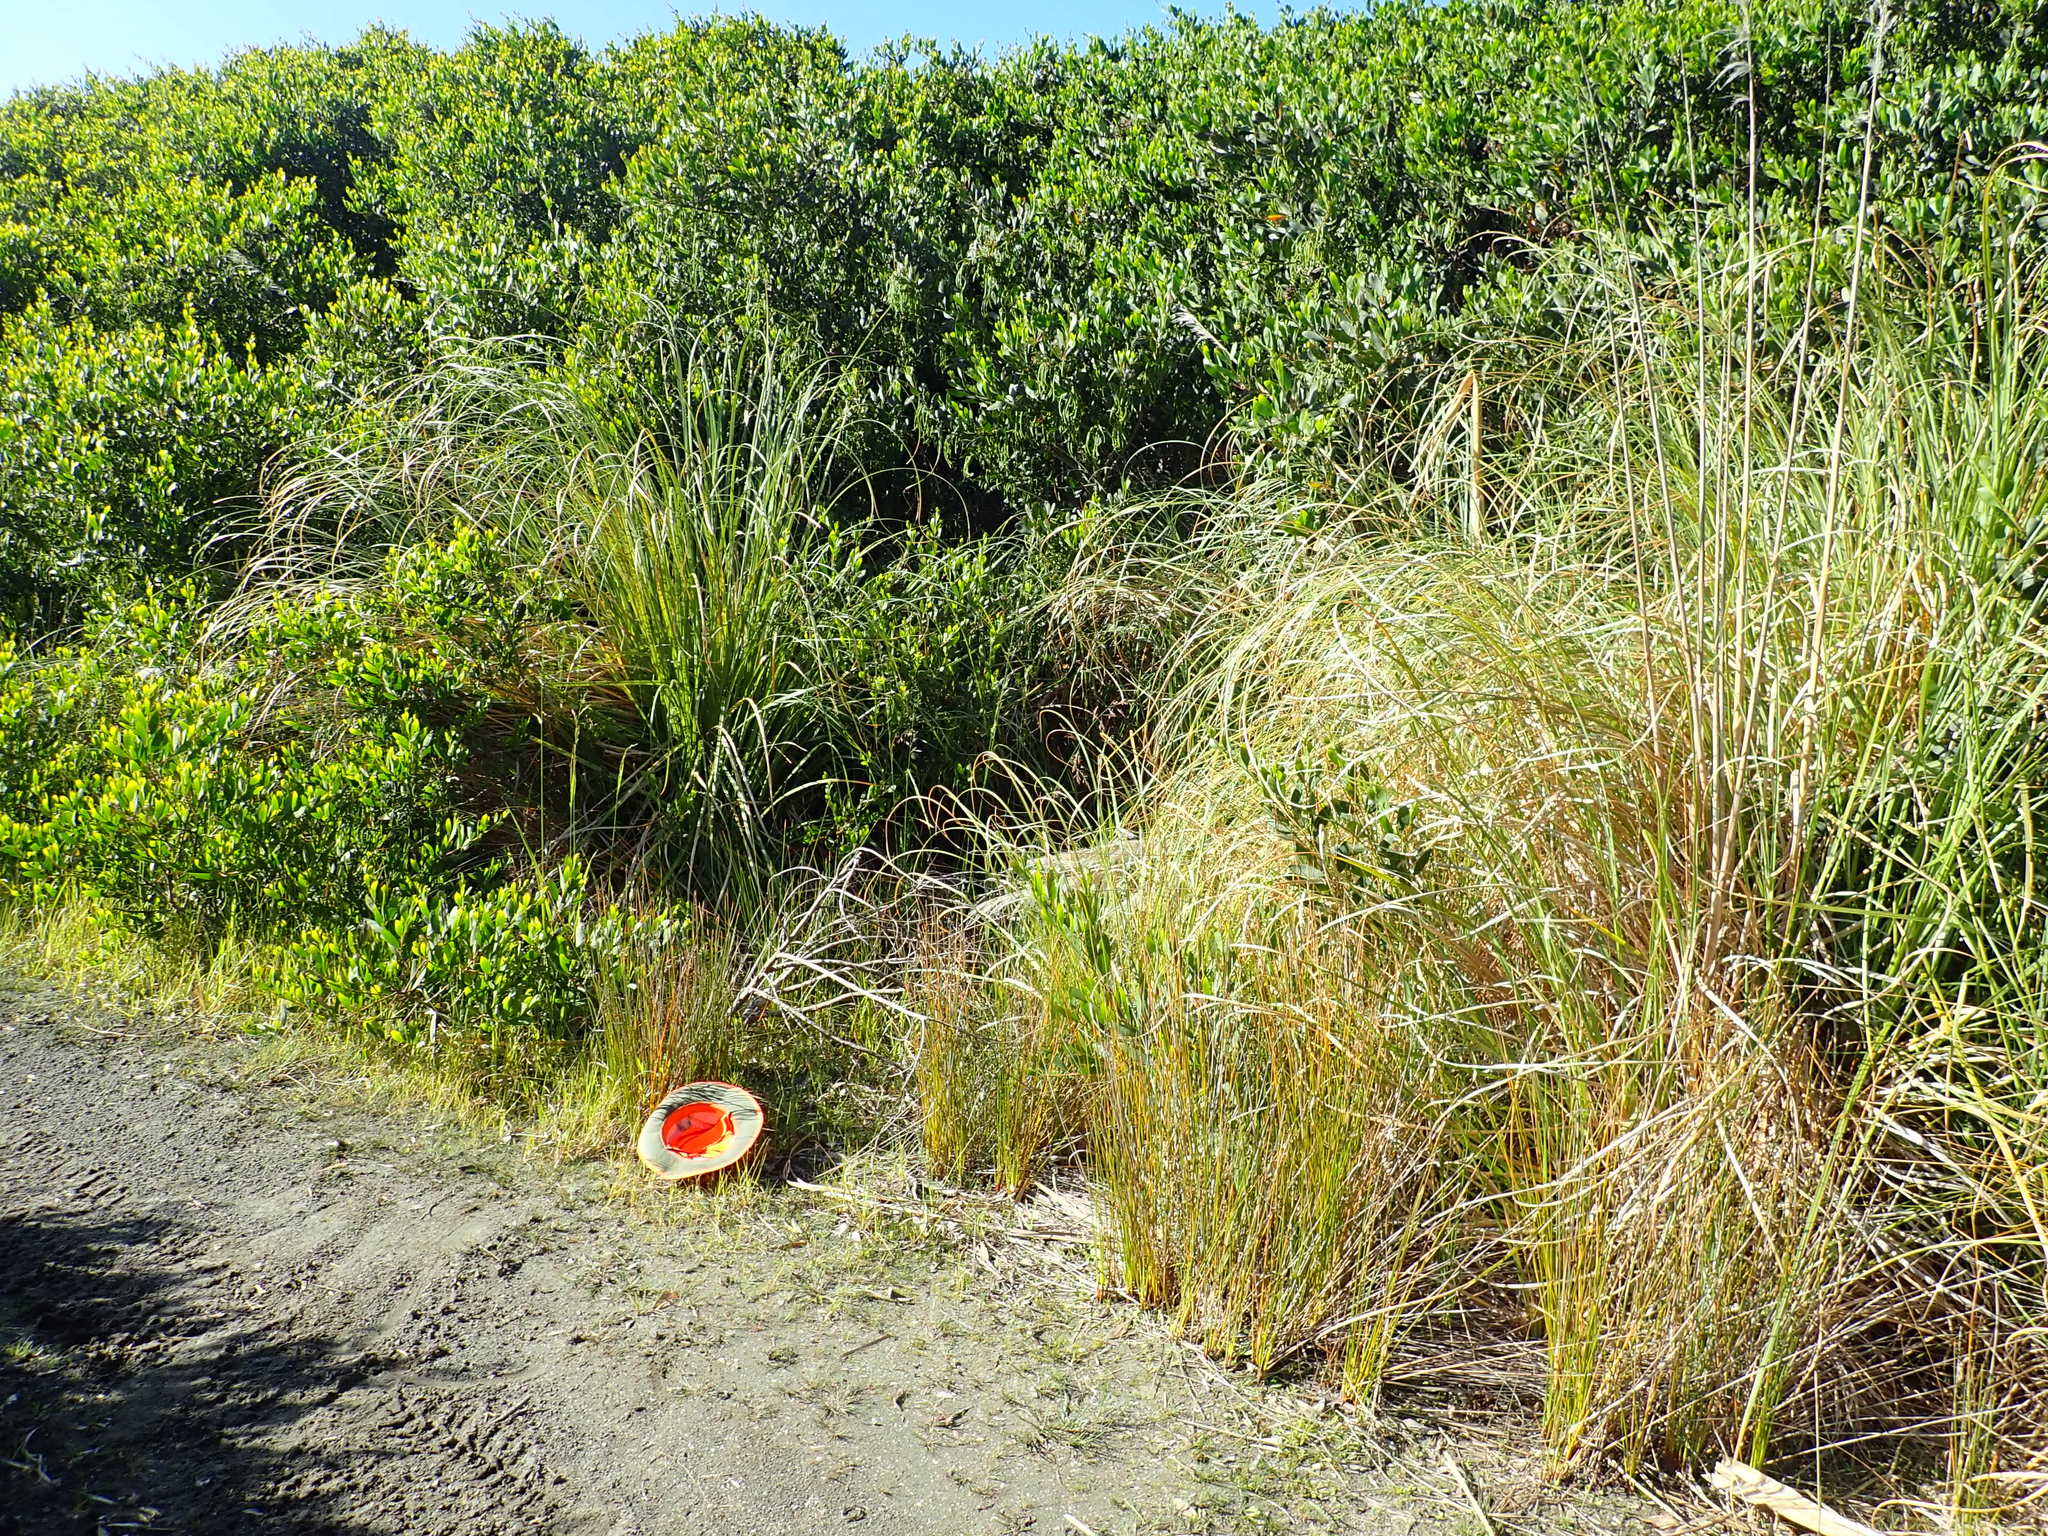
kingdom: Plantae
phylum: Tracheophyta
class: Liliopsida
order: Poales
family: Cyperaceae
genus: Ficinia
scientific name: Ficinia nodosa
